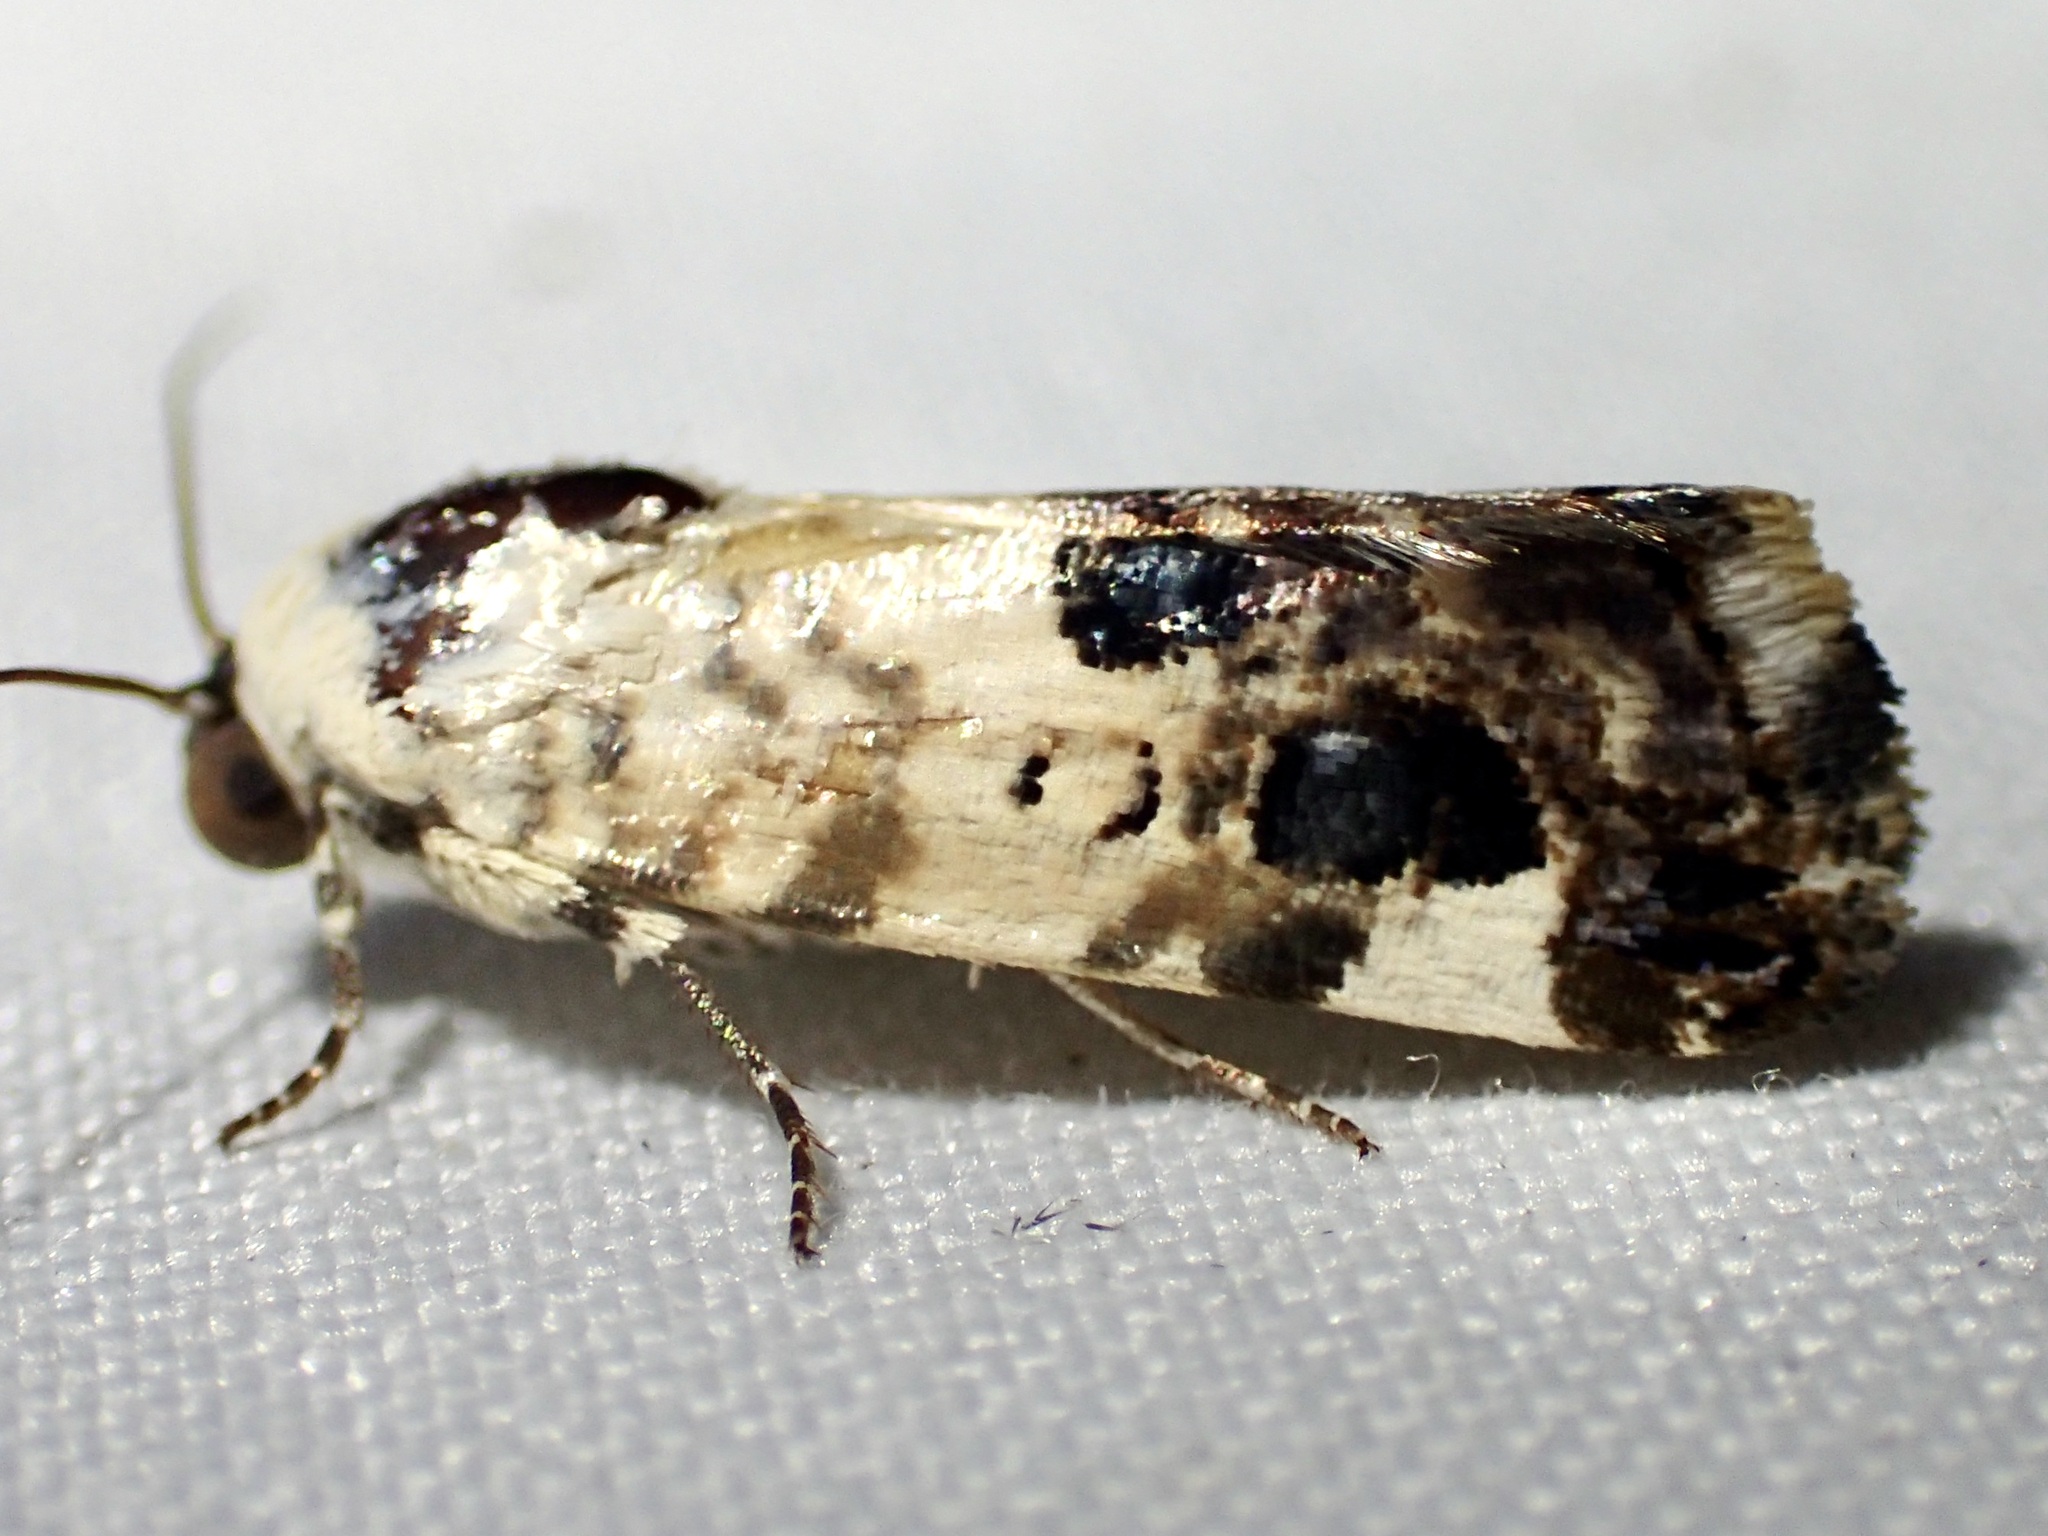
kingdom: Animalia
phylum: Arthropoda
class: Insecta
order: Lepidoptera
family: Noctuidae
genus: Acontia
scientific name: Acontia geminocula
